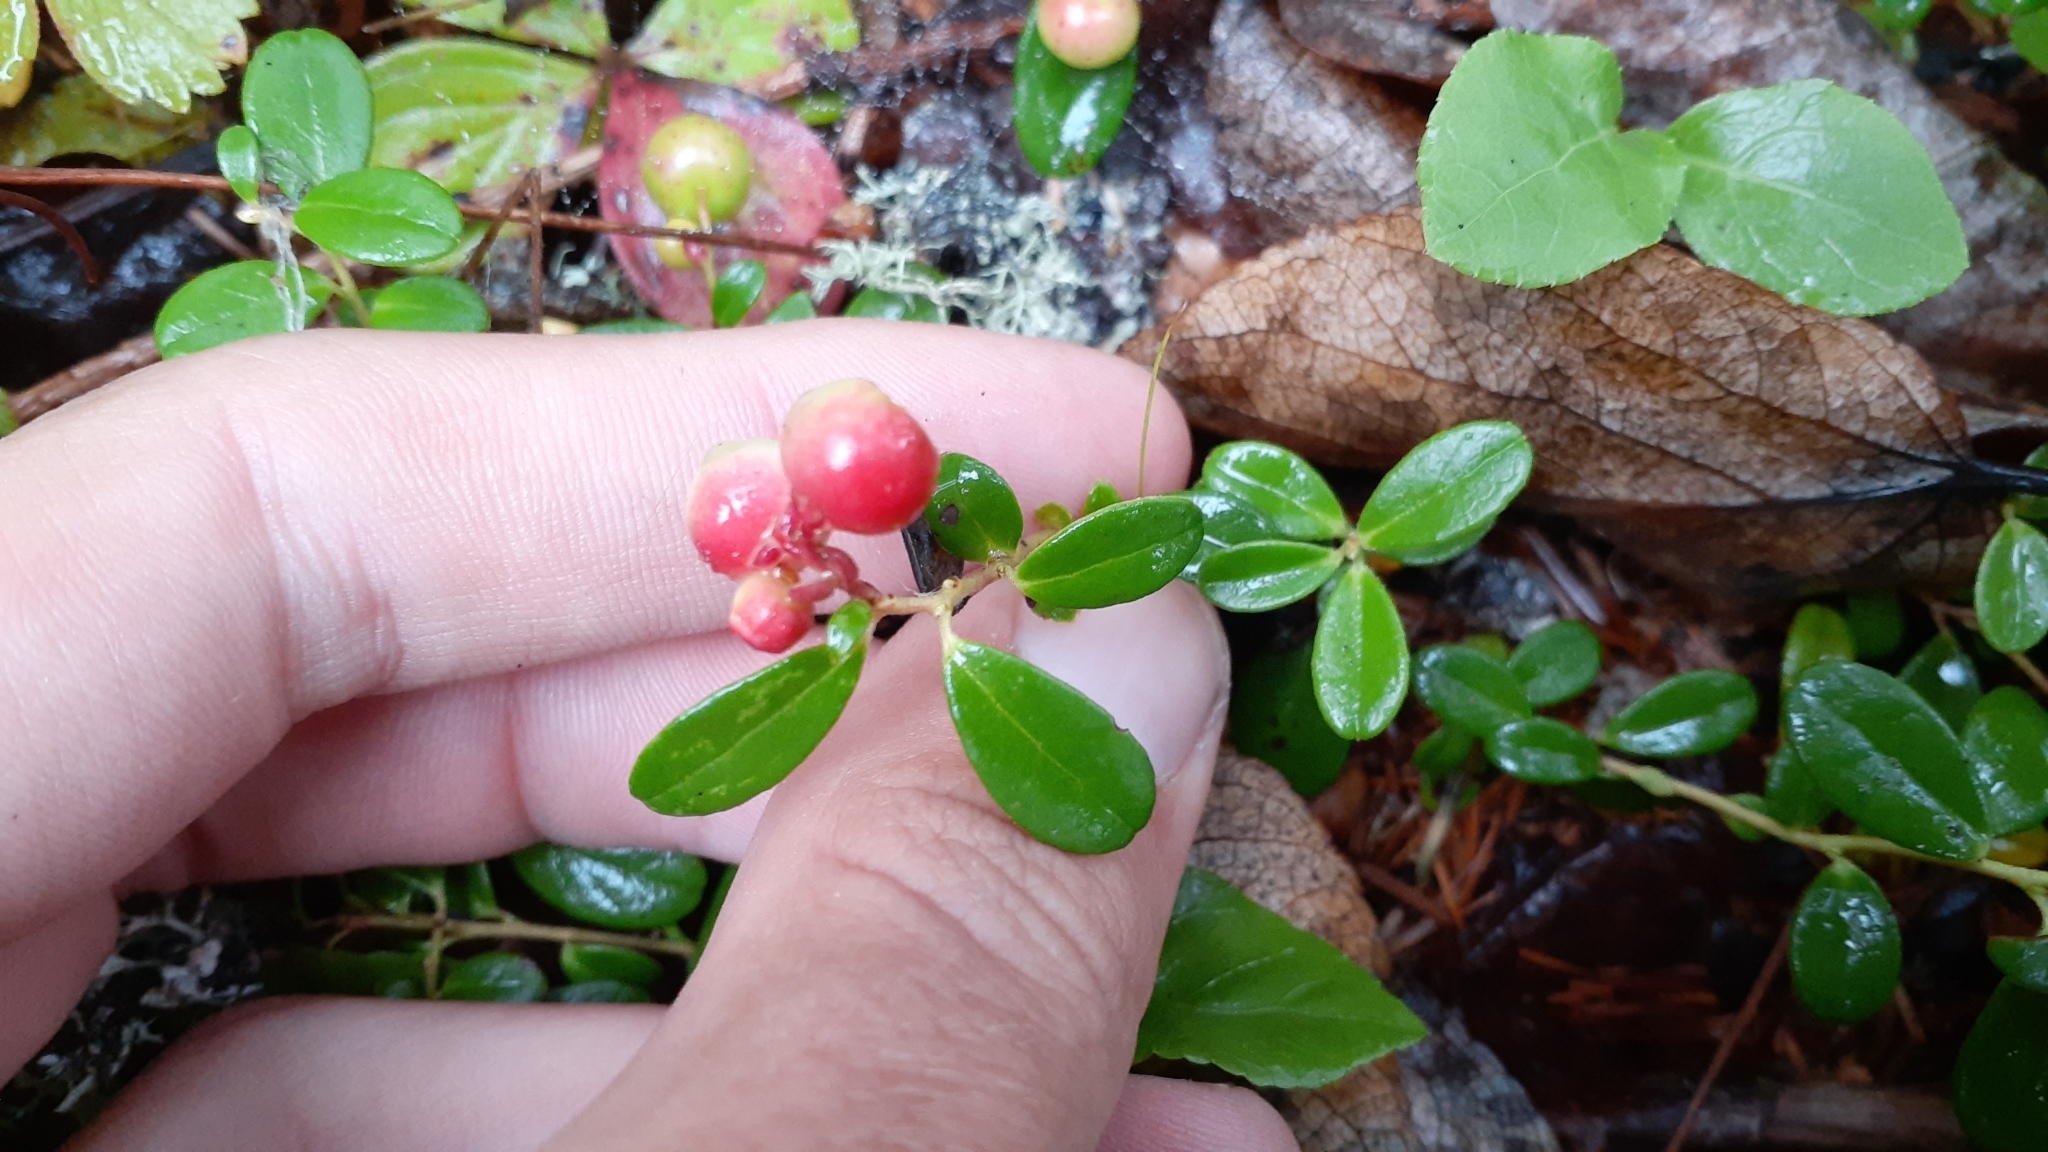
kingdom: Plantae
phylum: Tracheophyta
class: Magnoliopsida
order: Ericales
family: Ericaceae
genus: Vaccinium
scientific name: Vaccinium vitis-idaea
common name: Cowberry
